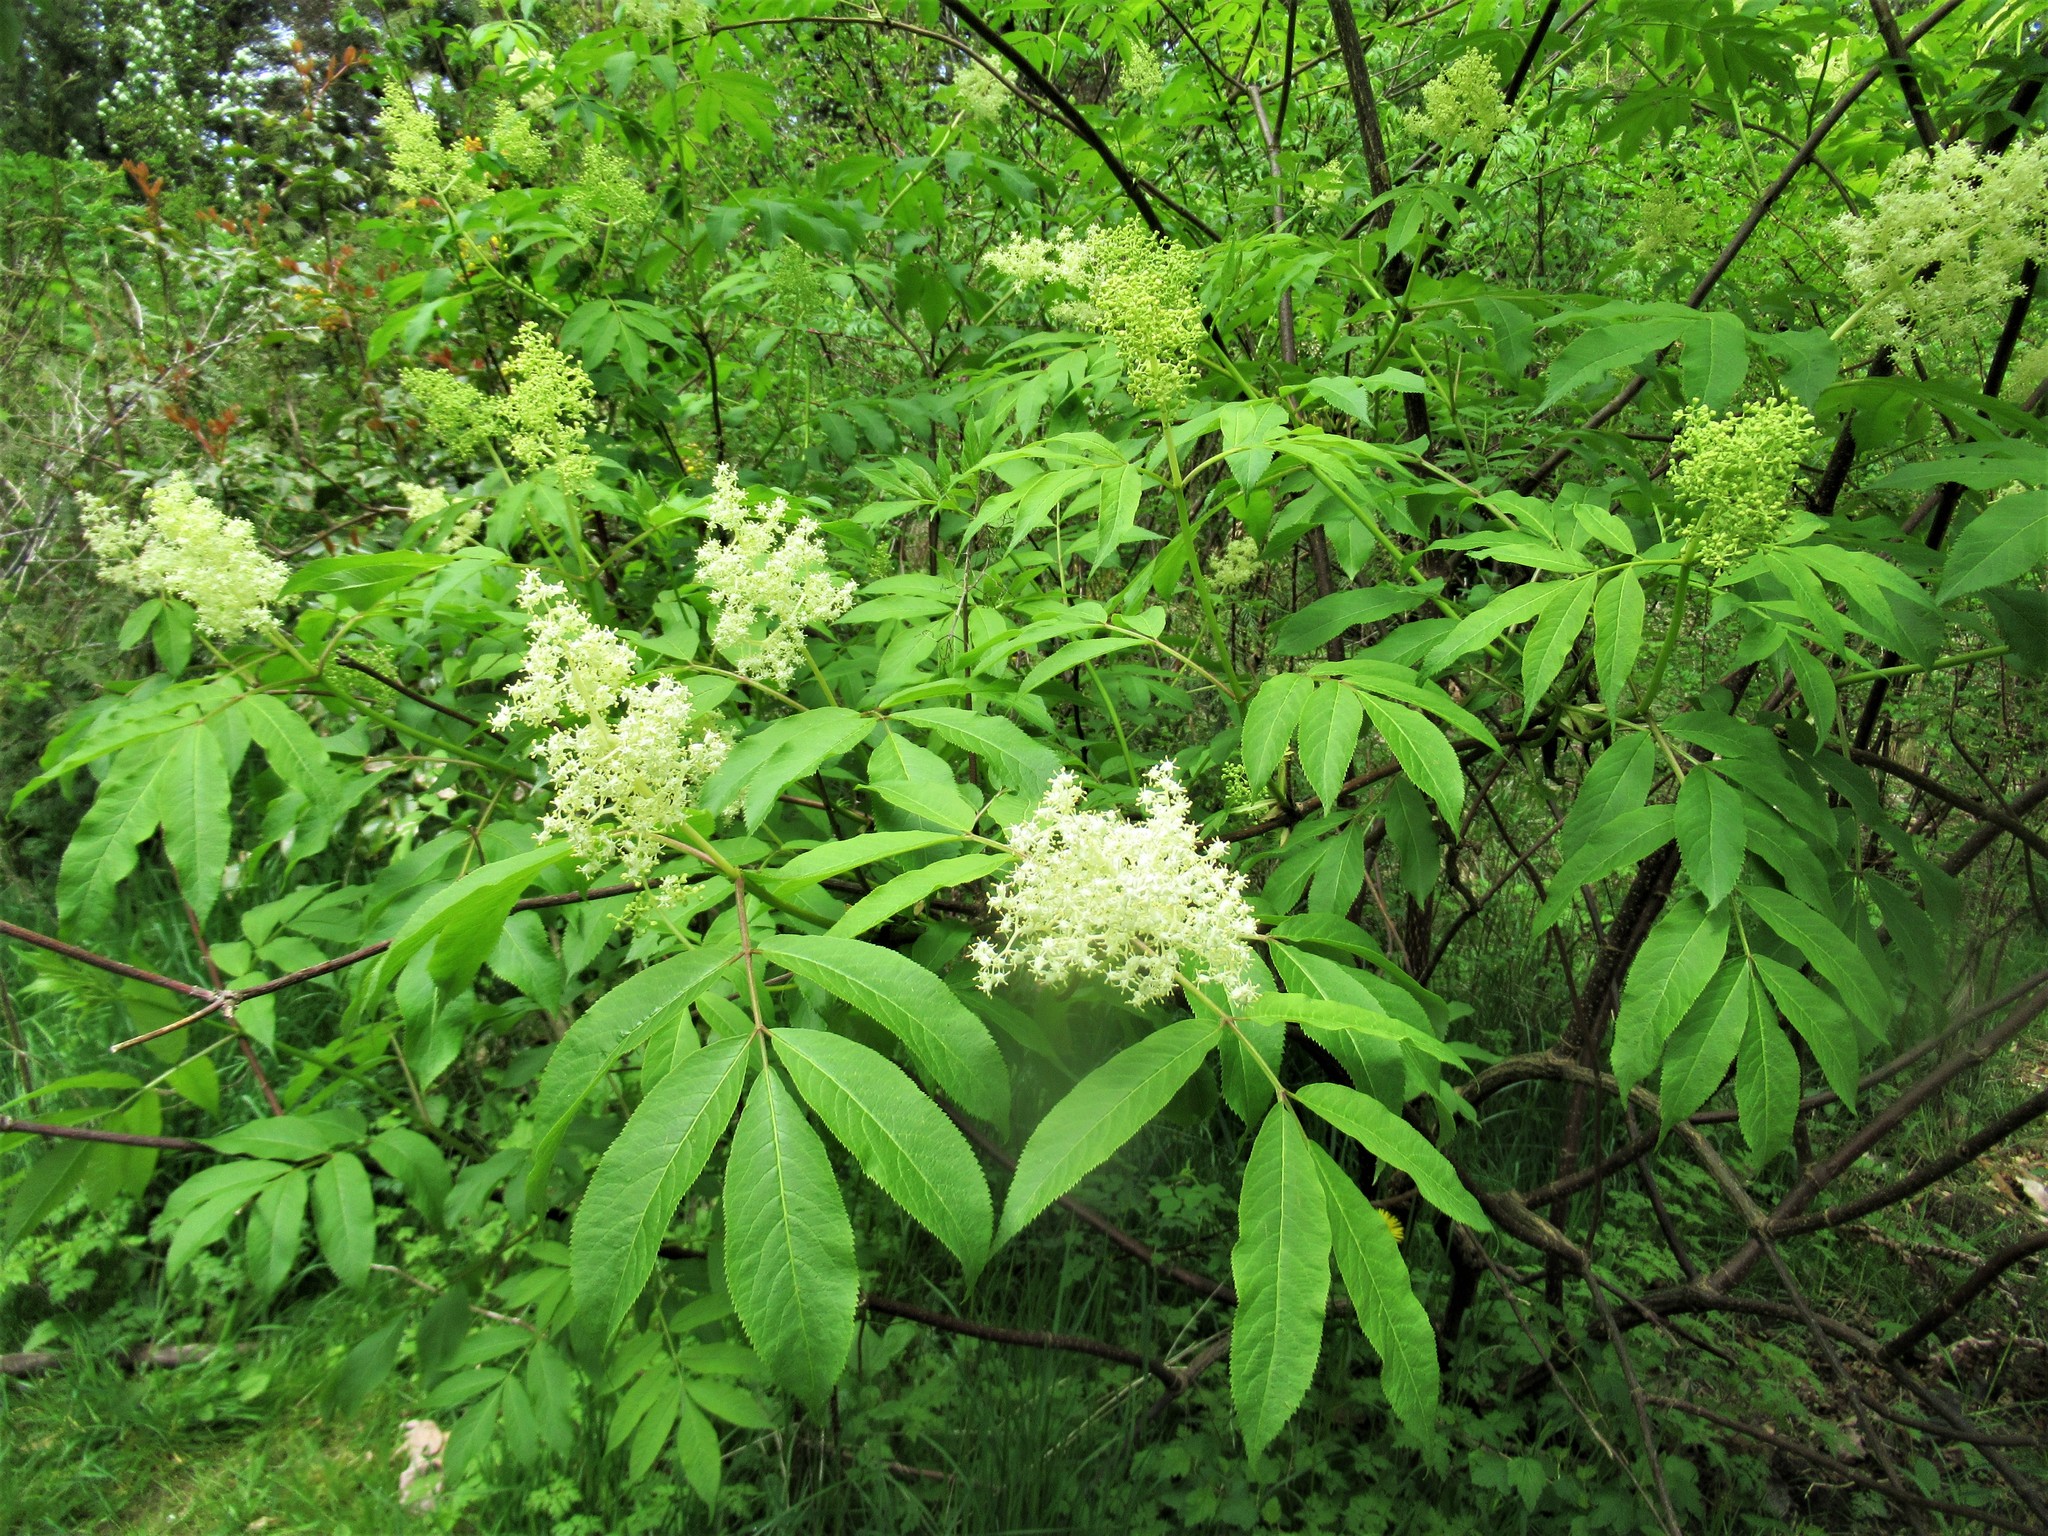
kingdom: Plantae
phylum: Tracheophyta
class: Magnoliopsida
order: Dipsacales
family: Viburnaceae
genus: Sambucus
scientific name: Sambucus racemosa
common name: Red-berried elder
